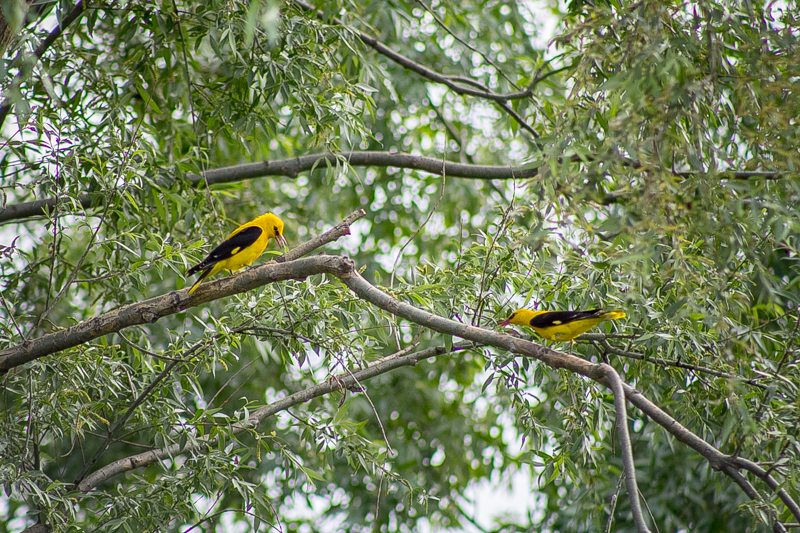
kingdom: Animalia
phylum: Chordata
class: Aves
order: Passeriformes
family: Oriolidae
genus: Oriolus
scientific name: Oriolus oriolus
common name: Eurasian golden oriole
